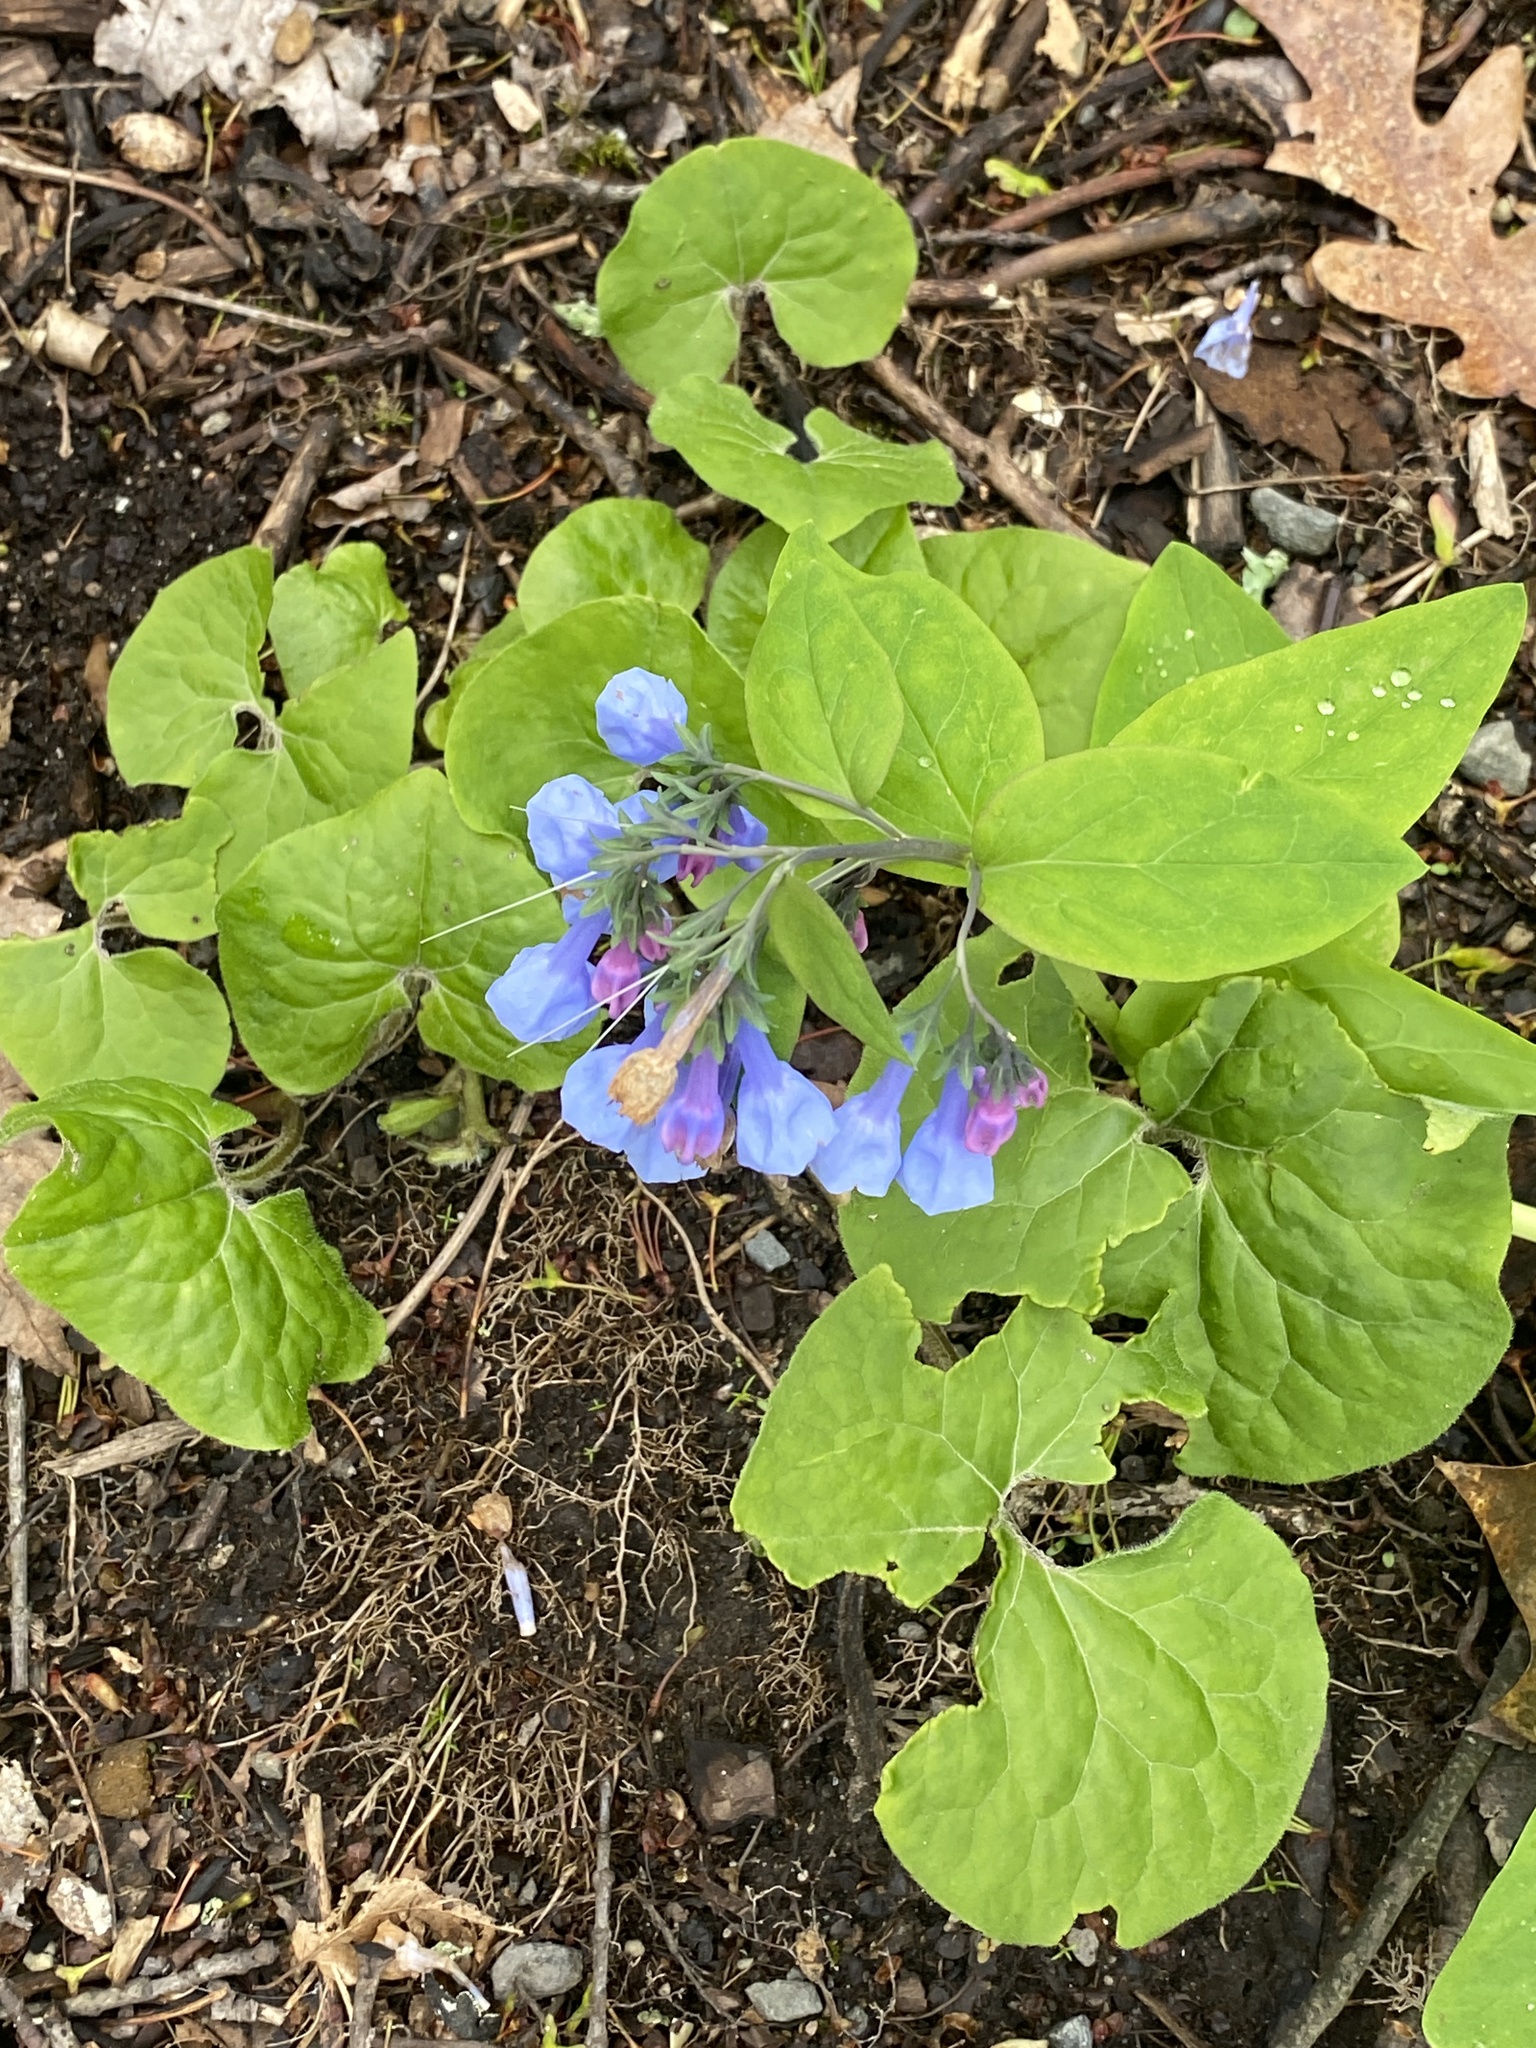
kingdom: Plantae
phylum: Tracheophyta
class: Magnoliopsida
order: Boraginales
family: Boraginaceae
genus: Mertensia
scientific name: Mertensia virginica
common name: Virginia bluebells
